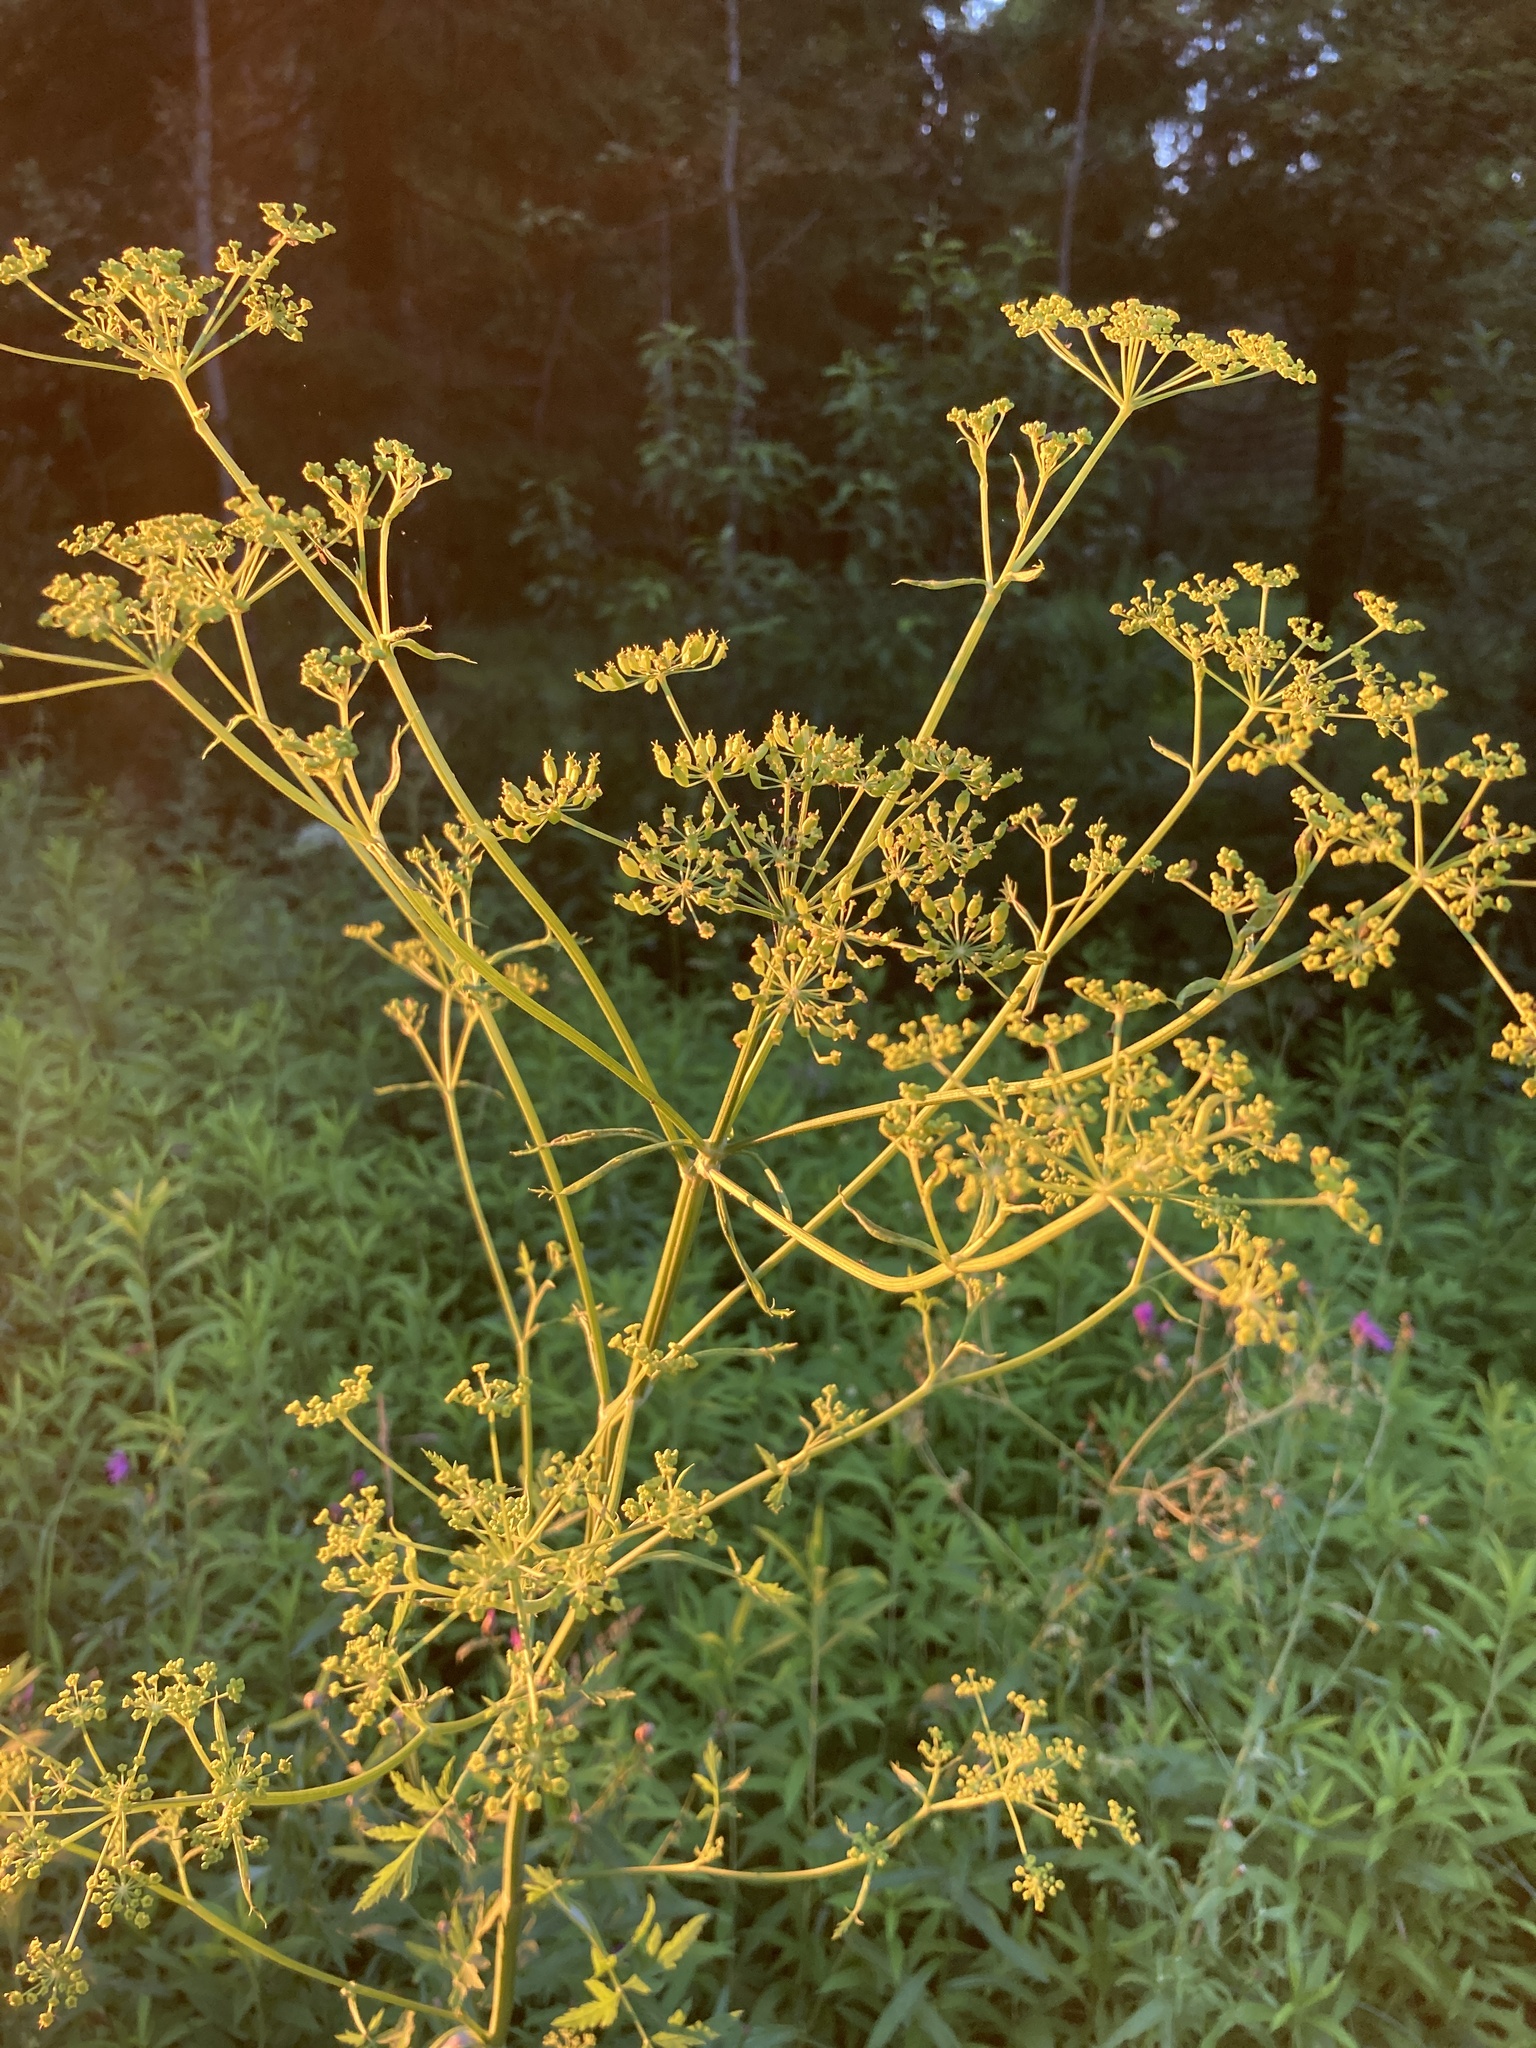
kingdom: Plantae
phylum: Tracheophyta
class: Magnoliopsida
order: Apiales
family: Apiaceae
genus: Pastinaca
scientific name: Pastinaca sativa
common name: Wild parsnip
